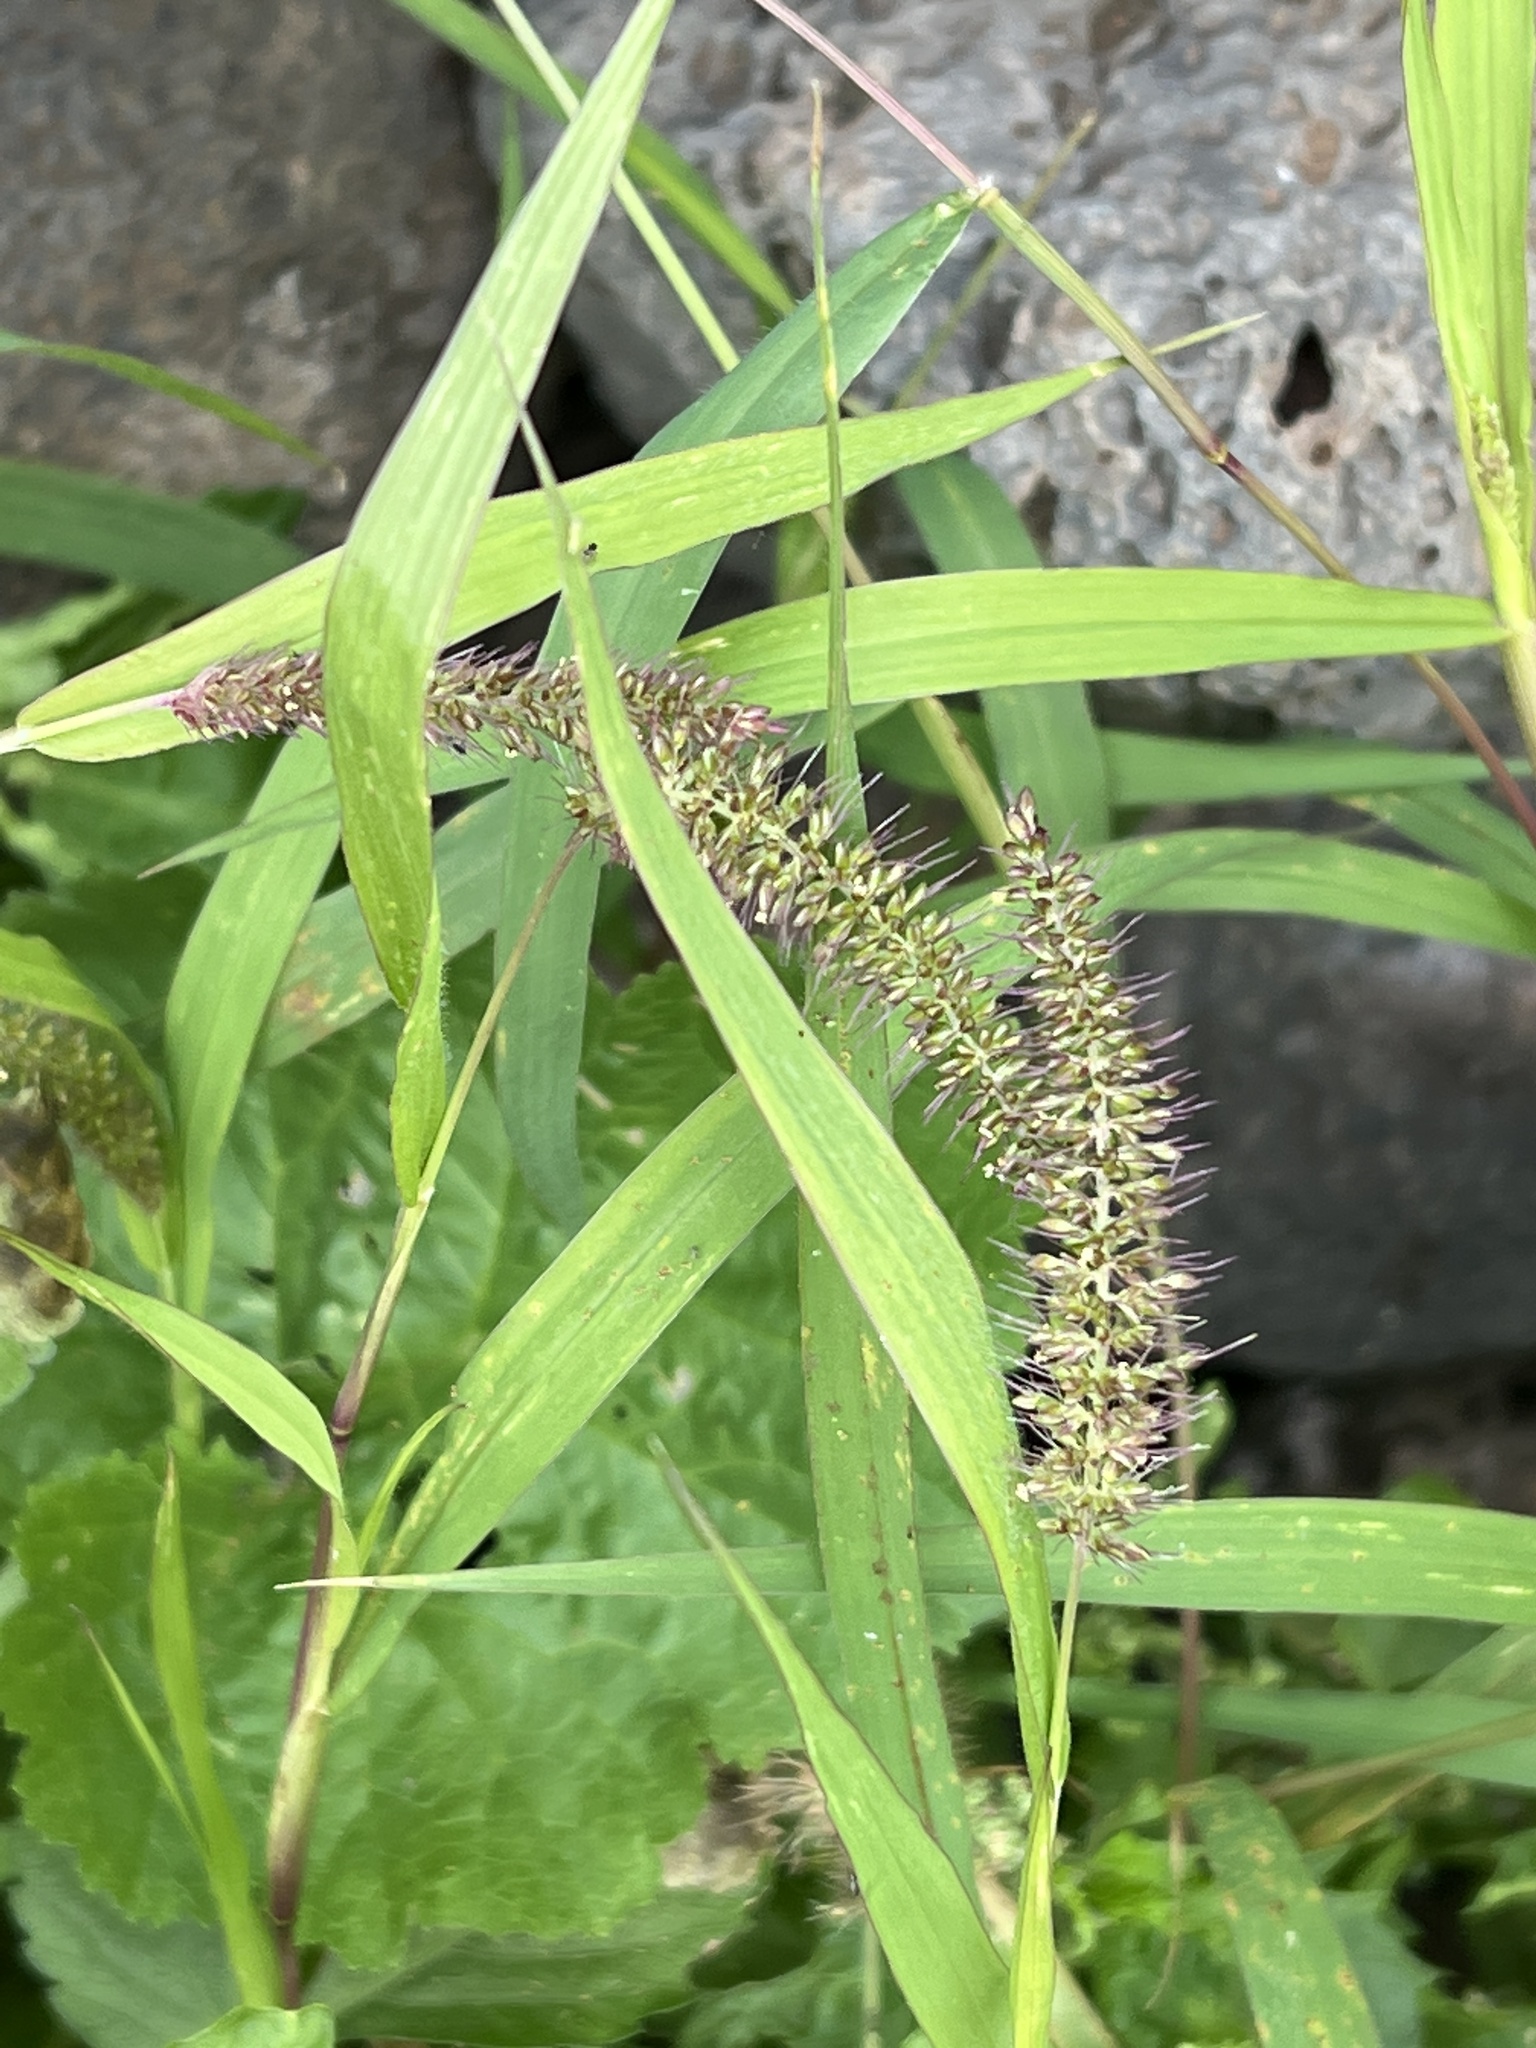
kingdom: Plantae
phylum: Tracheophyta
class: Liliopsida
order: Poales
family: Poaceae
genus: Setaria
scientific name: Setaria adhaerens
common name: Adherent bristle-grass
